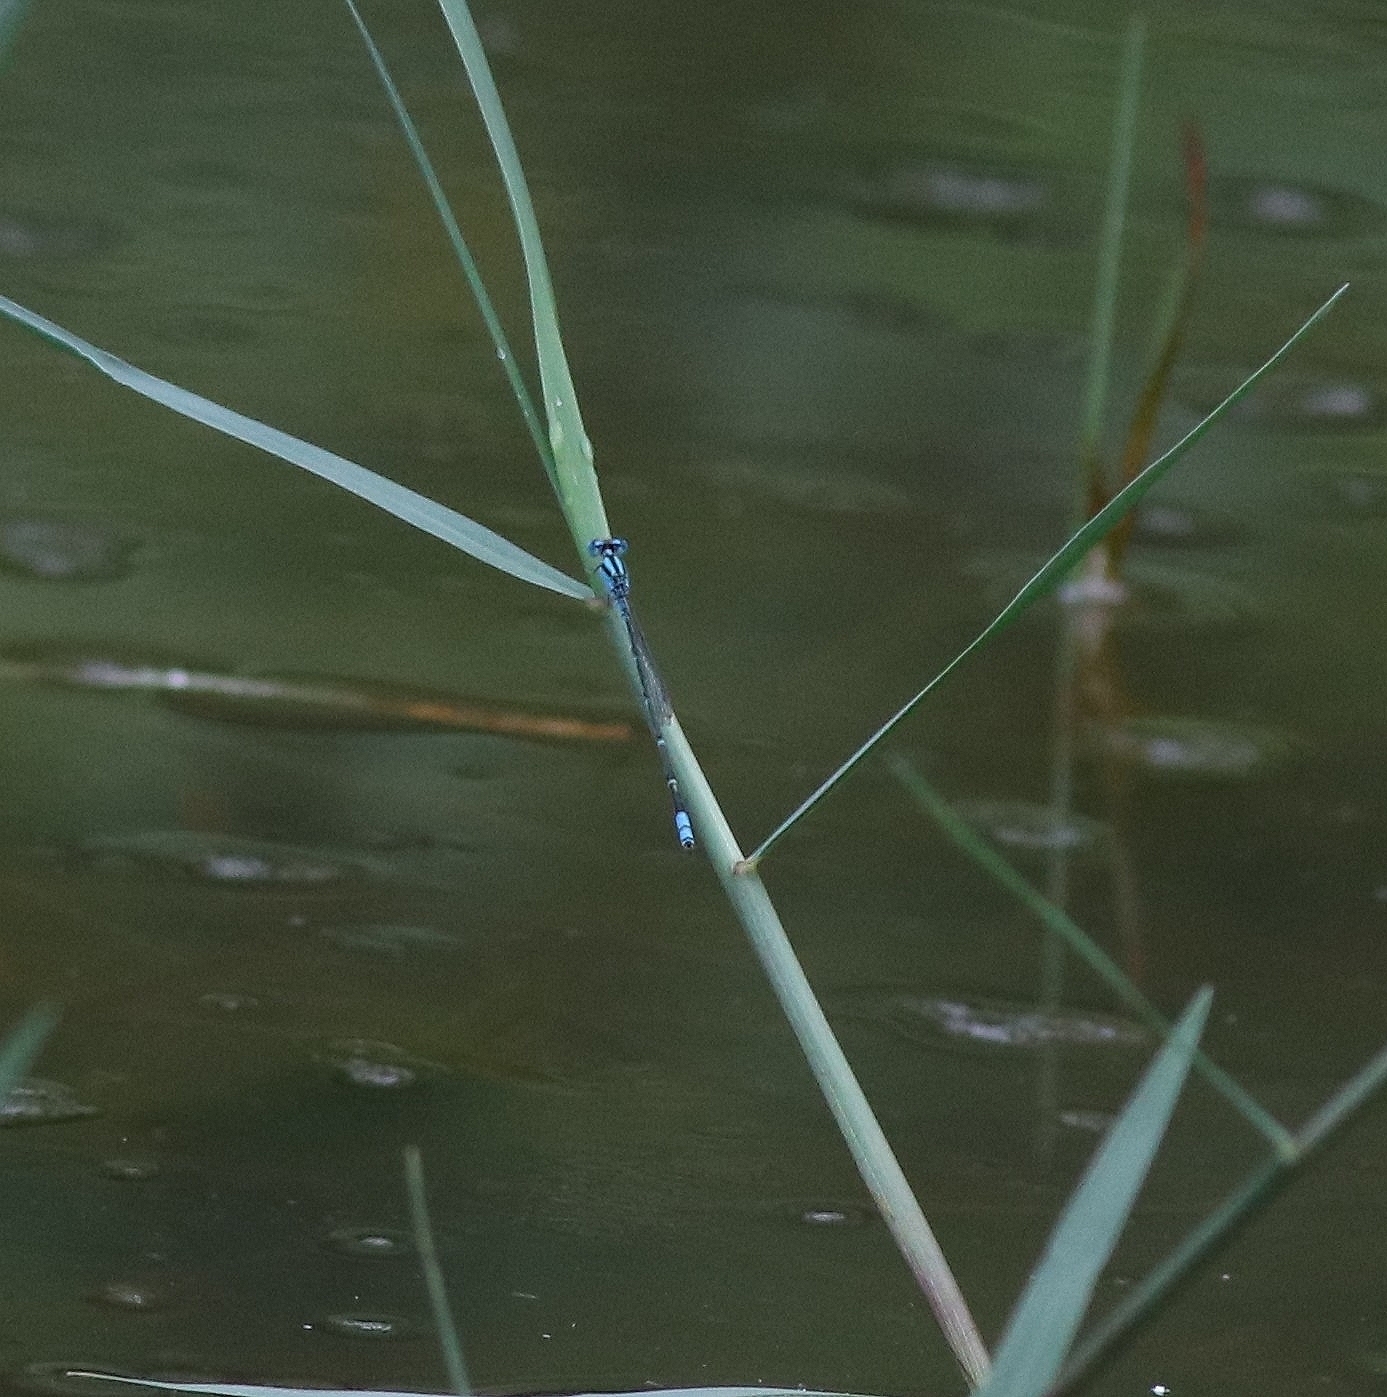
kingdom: Animalia
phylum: Arthropoda
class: Insecta
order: Odonata
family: Coenagrionidae
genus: Pseudagrion
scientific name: Pseudagrion microcephalum
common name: Blue riverdamsel
